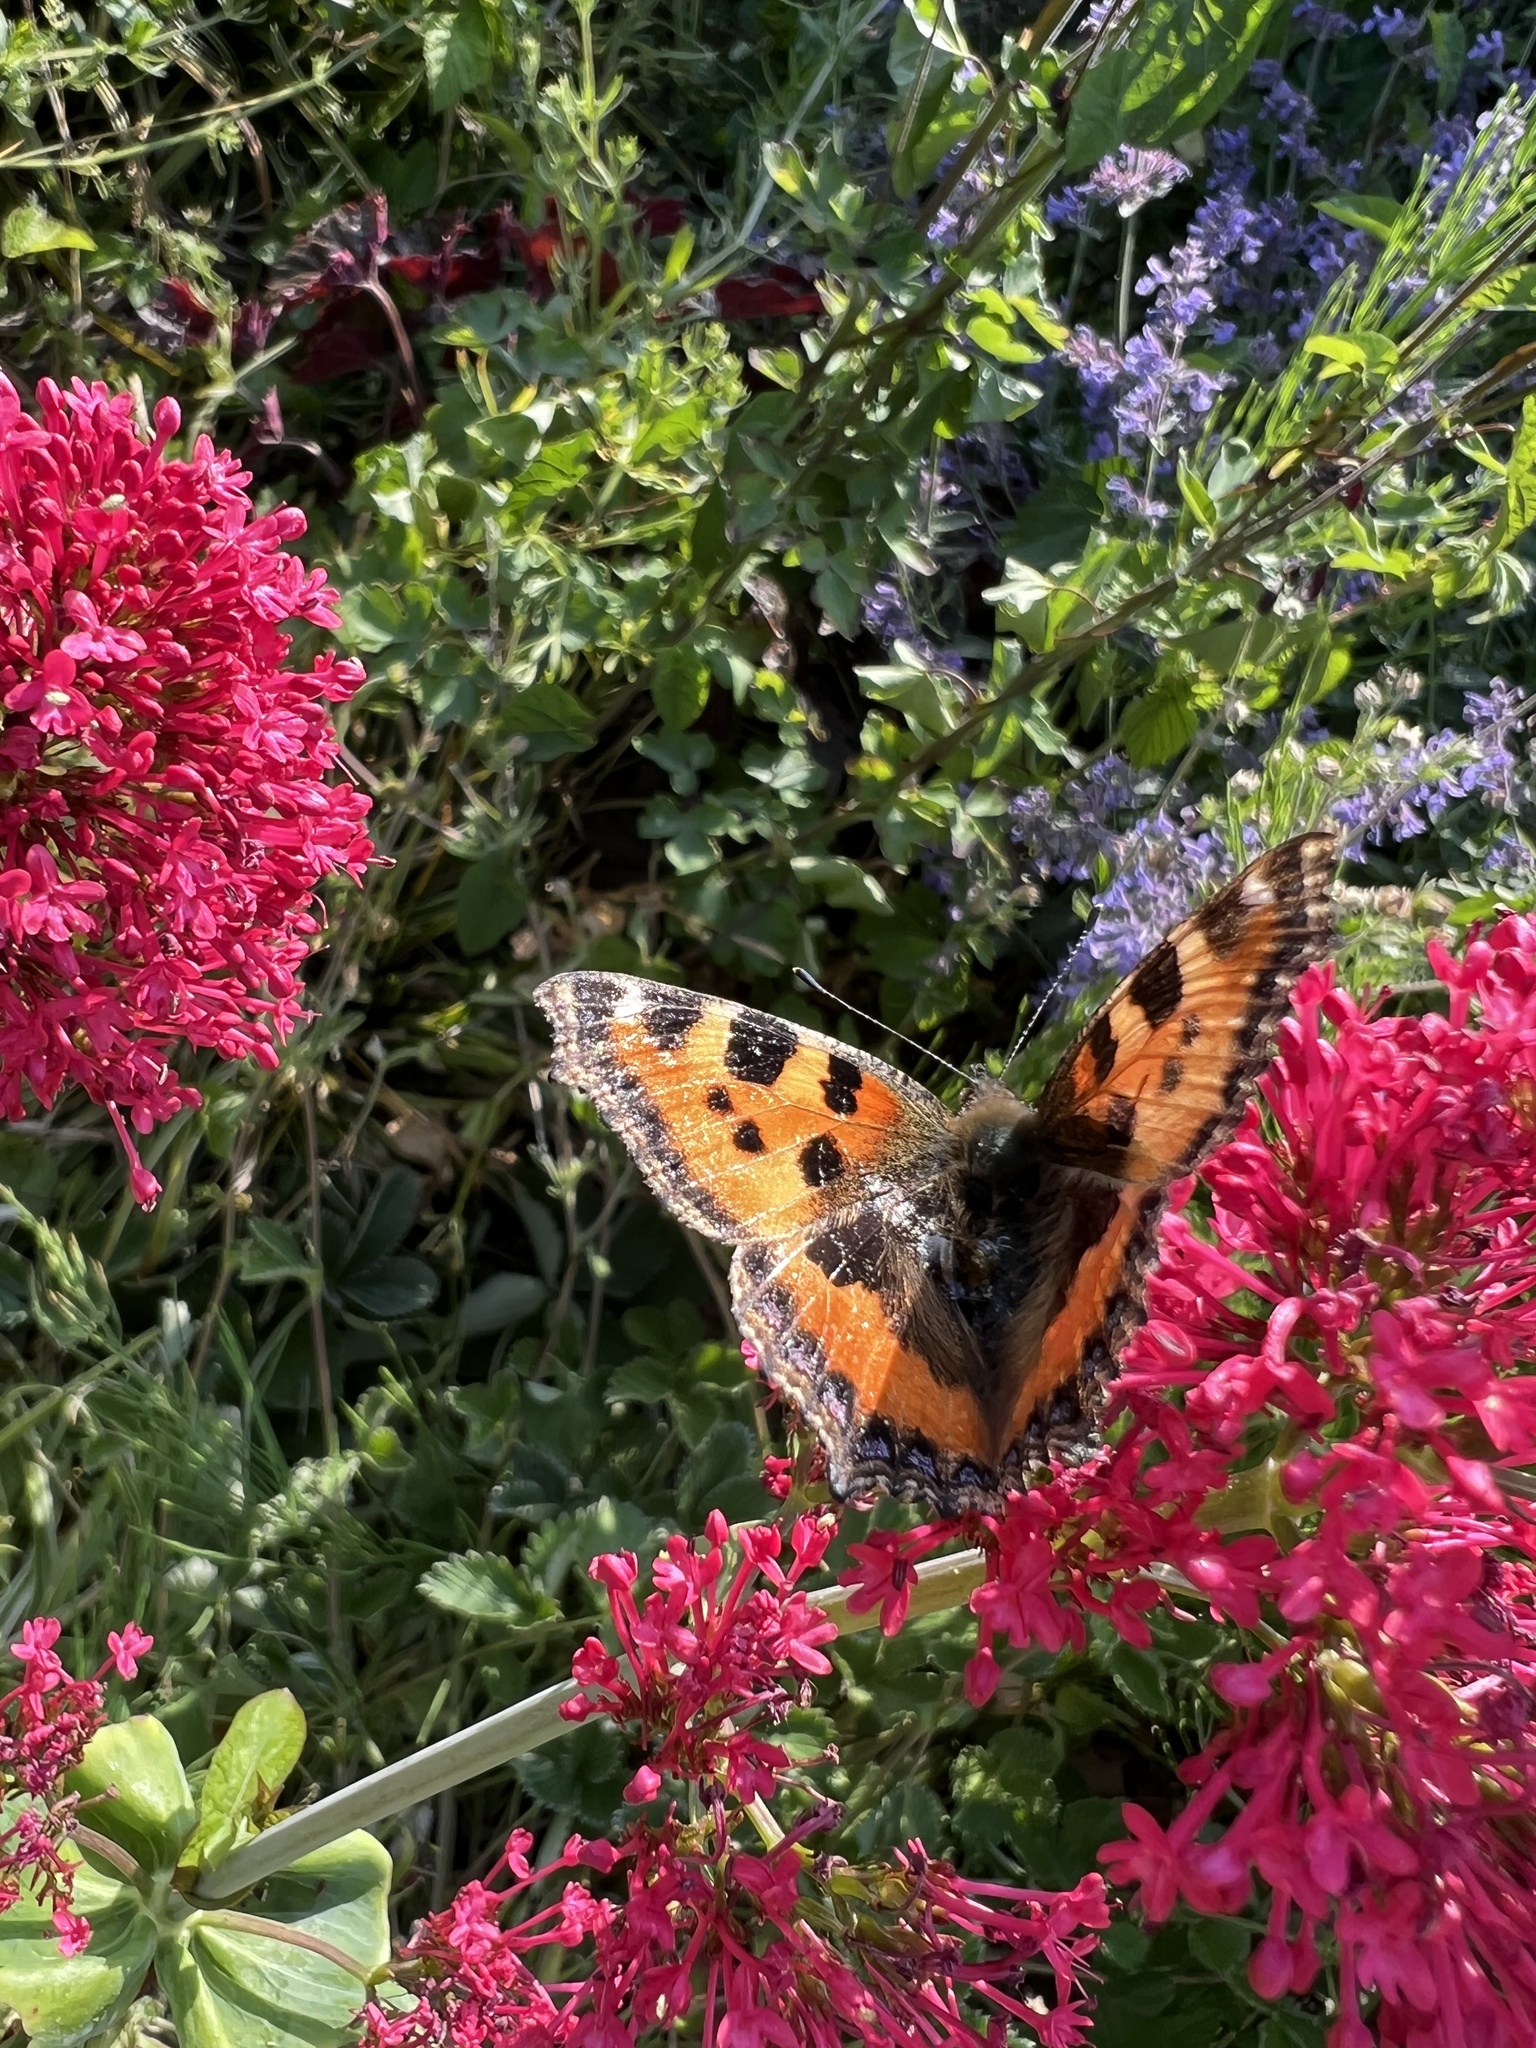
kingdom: Animalia
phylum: Arthropoda
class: Insecta
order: Lepidoptera
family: Nymphalidae
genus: Aglais
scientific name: Aglais urticae
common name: Small tortoiseshell
